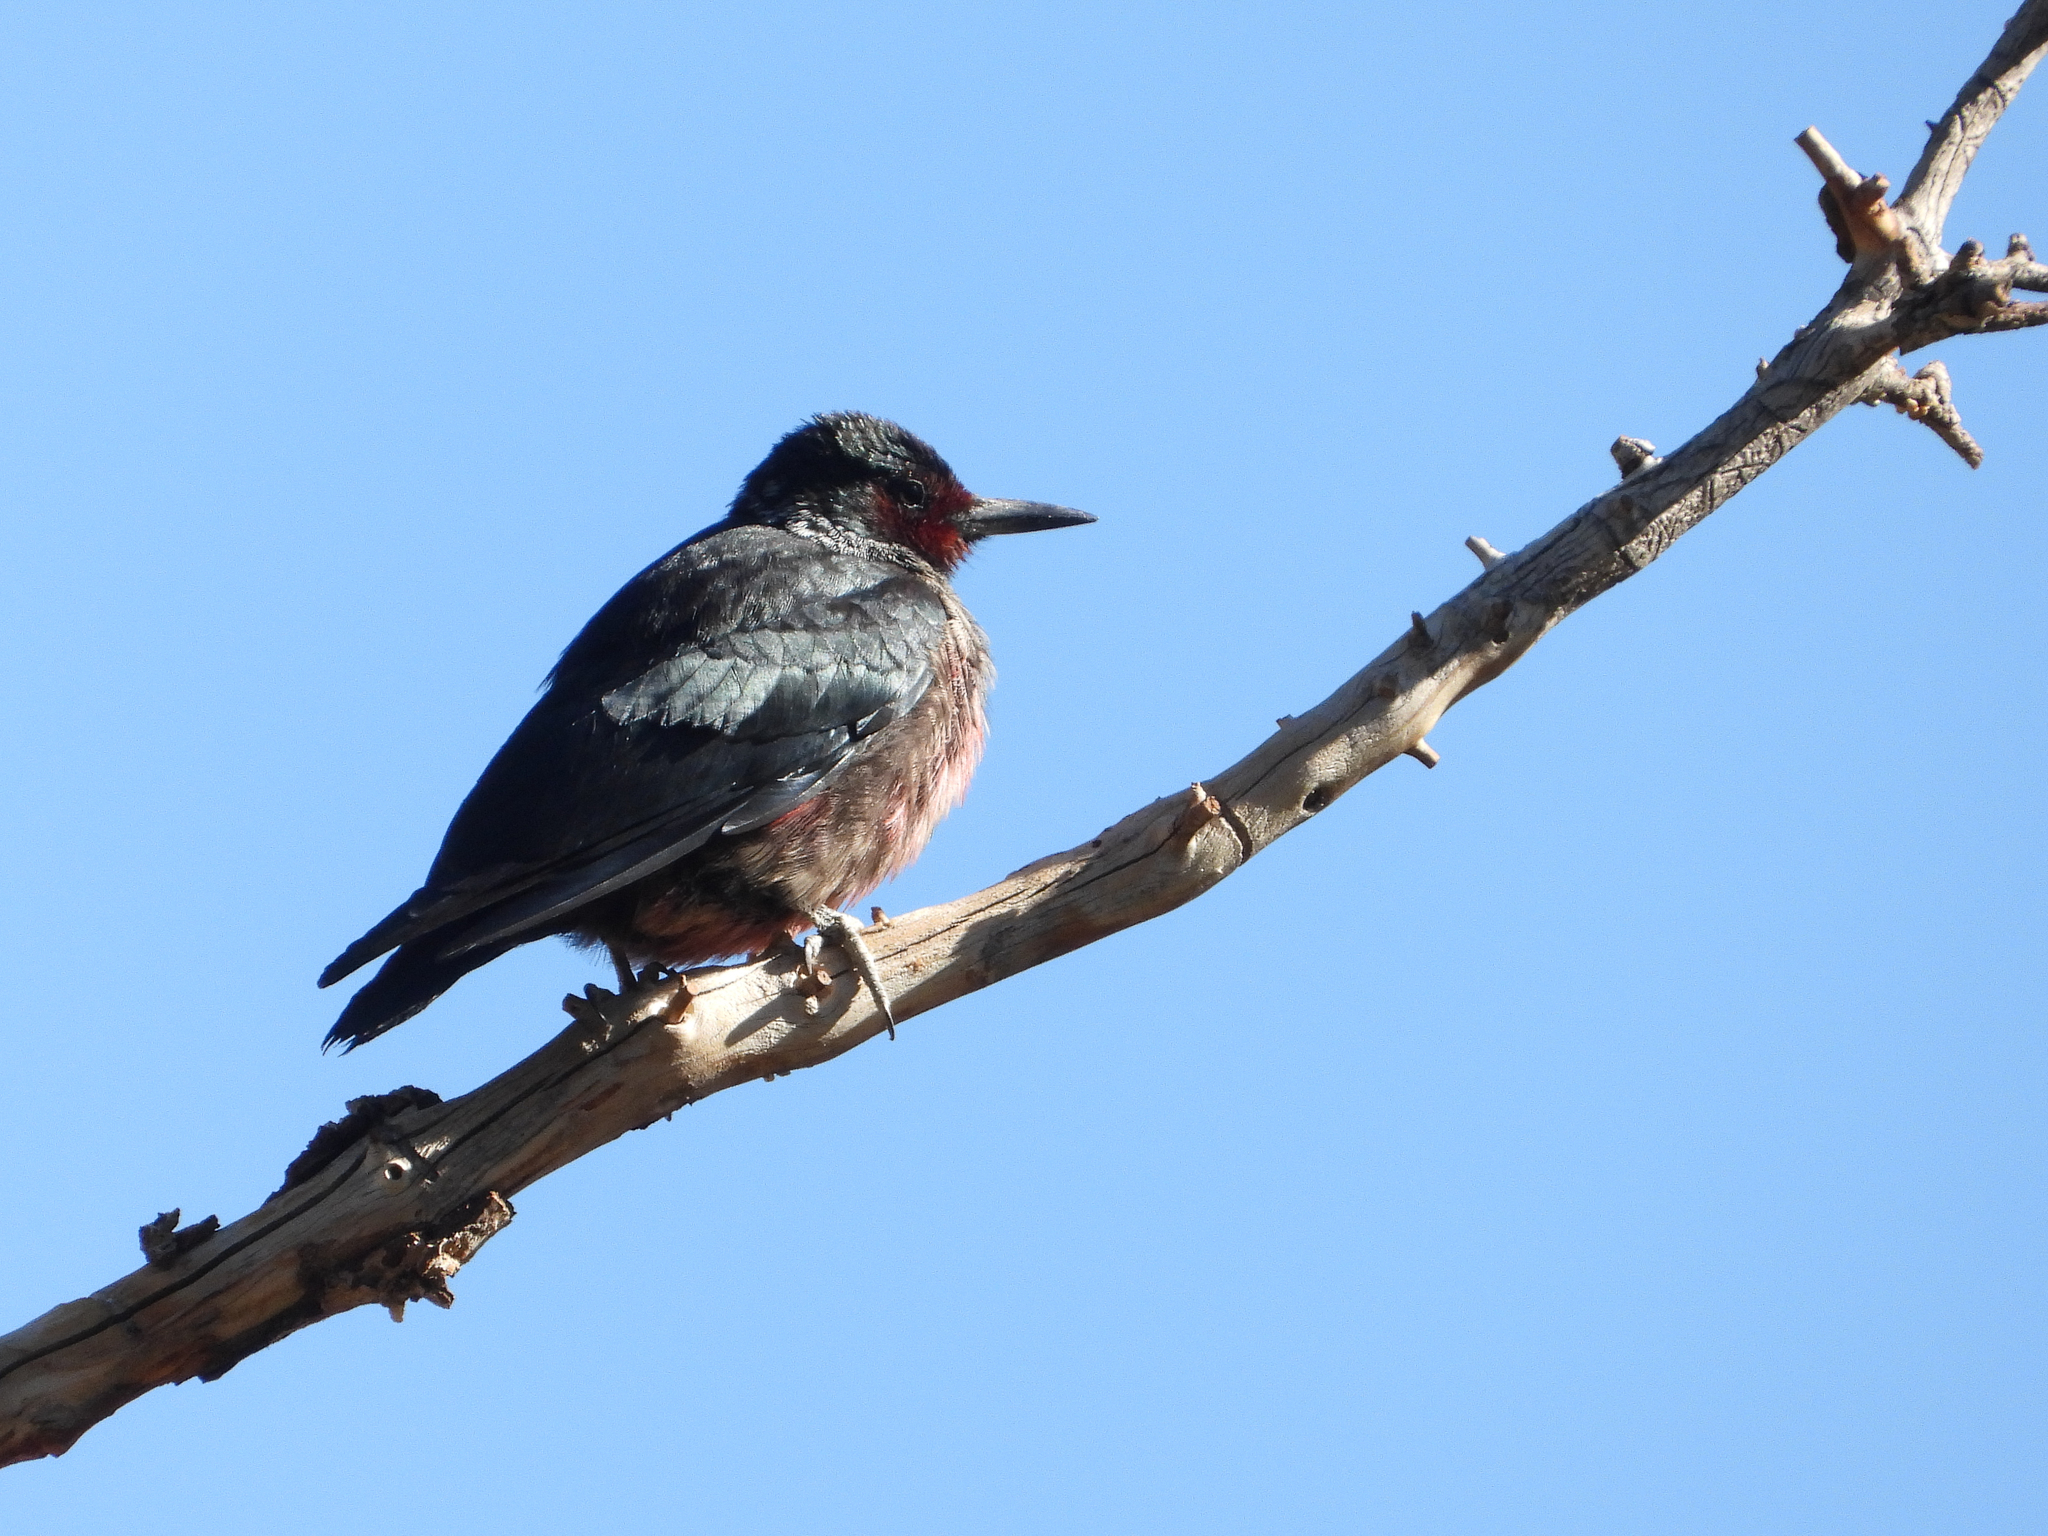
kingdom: Animalia
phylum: Chordata
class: Aves
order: Piciformes
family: Picidae
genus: Melanerpes
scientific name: Melanerpes lewis
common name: Lewis's woodpecker
